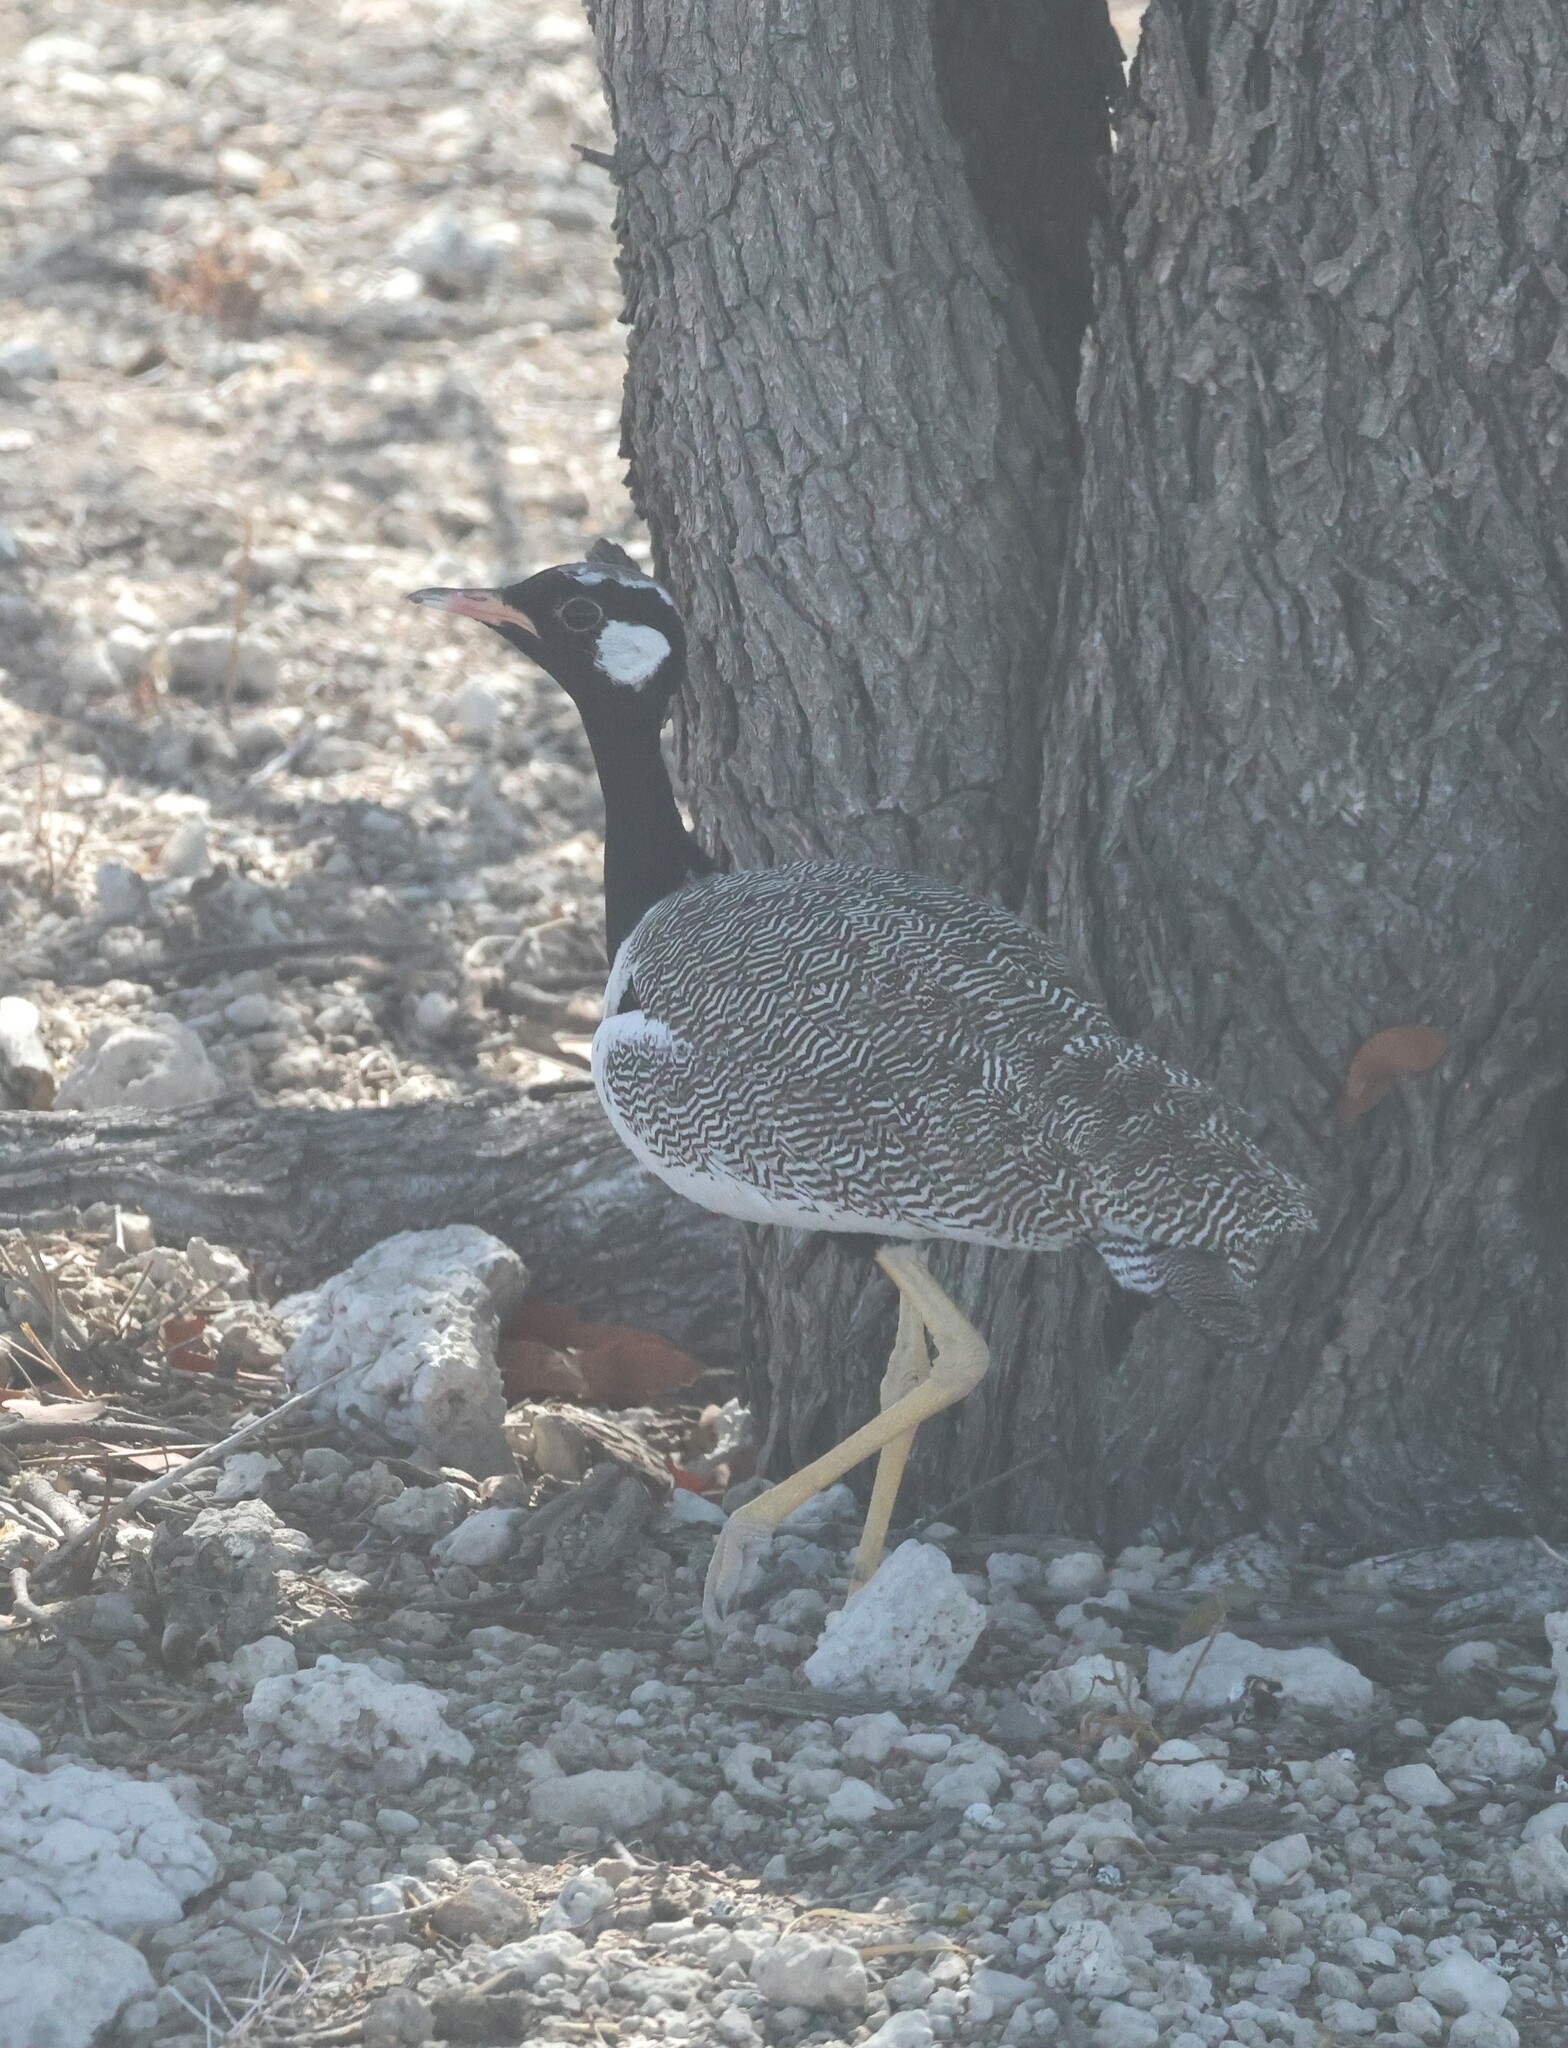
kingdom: Animalia
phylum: Chordata
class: Aves
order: Otidiformes
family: Otididae
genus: Afrotis
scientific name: Afrotis afraoides
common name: Northern black korhaan
